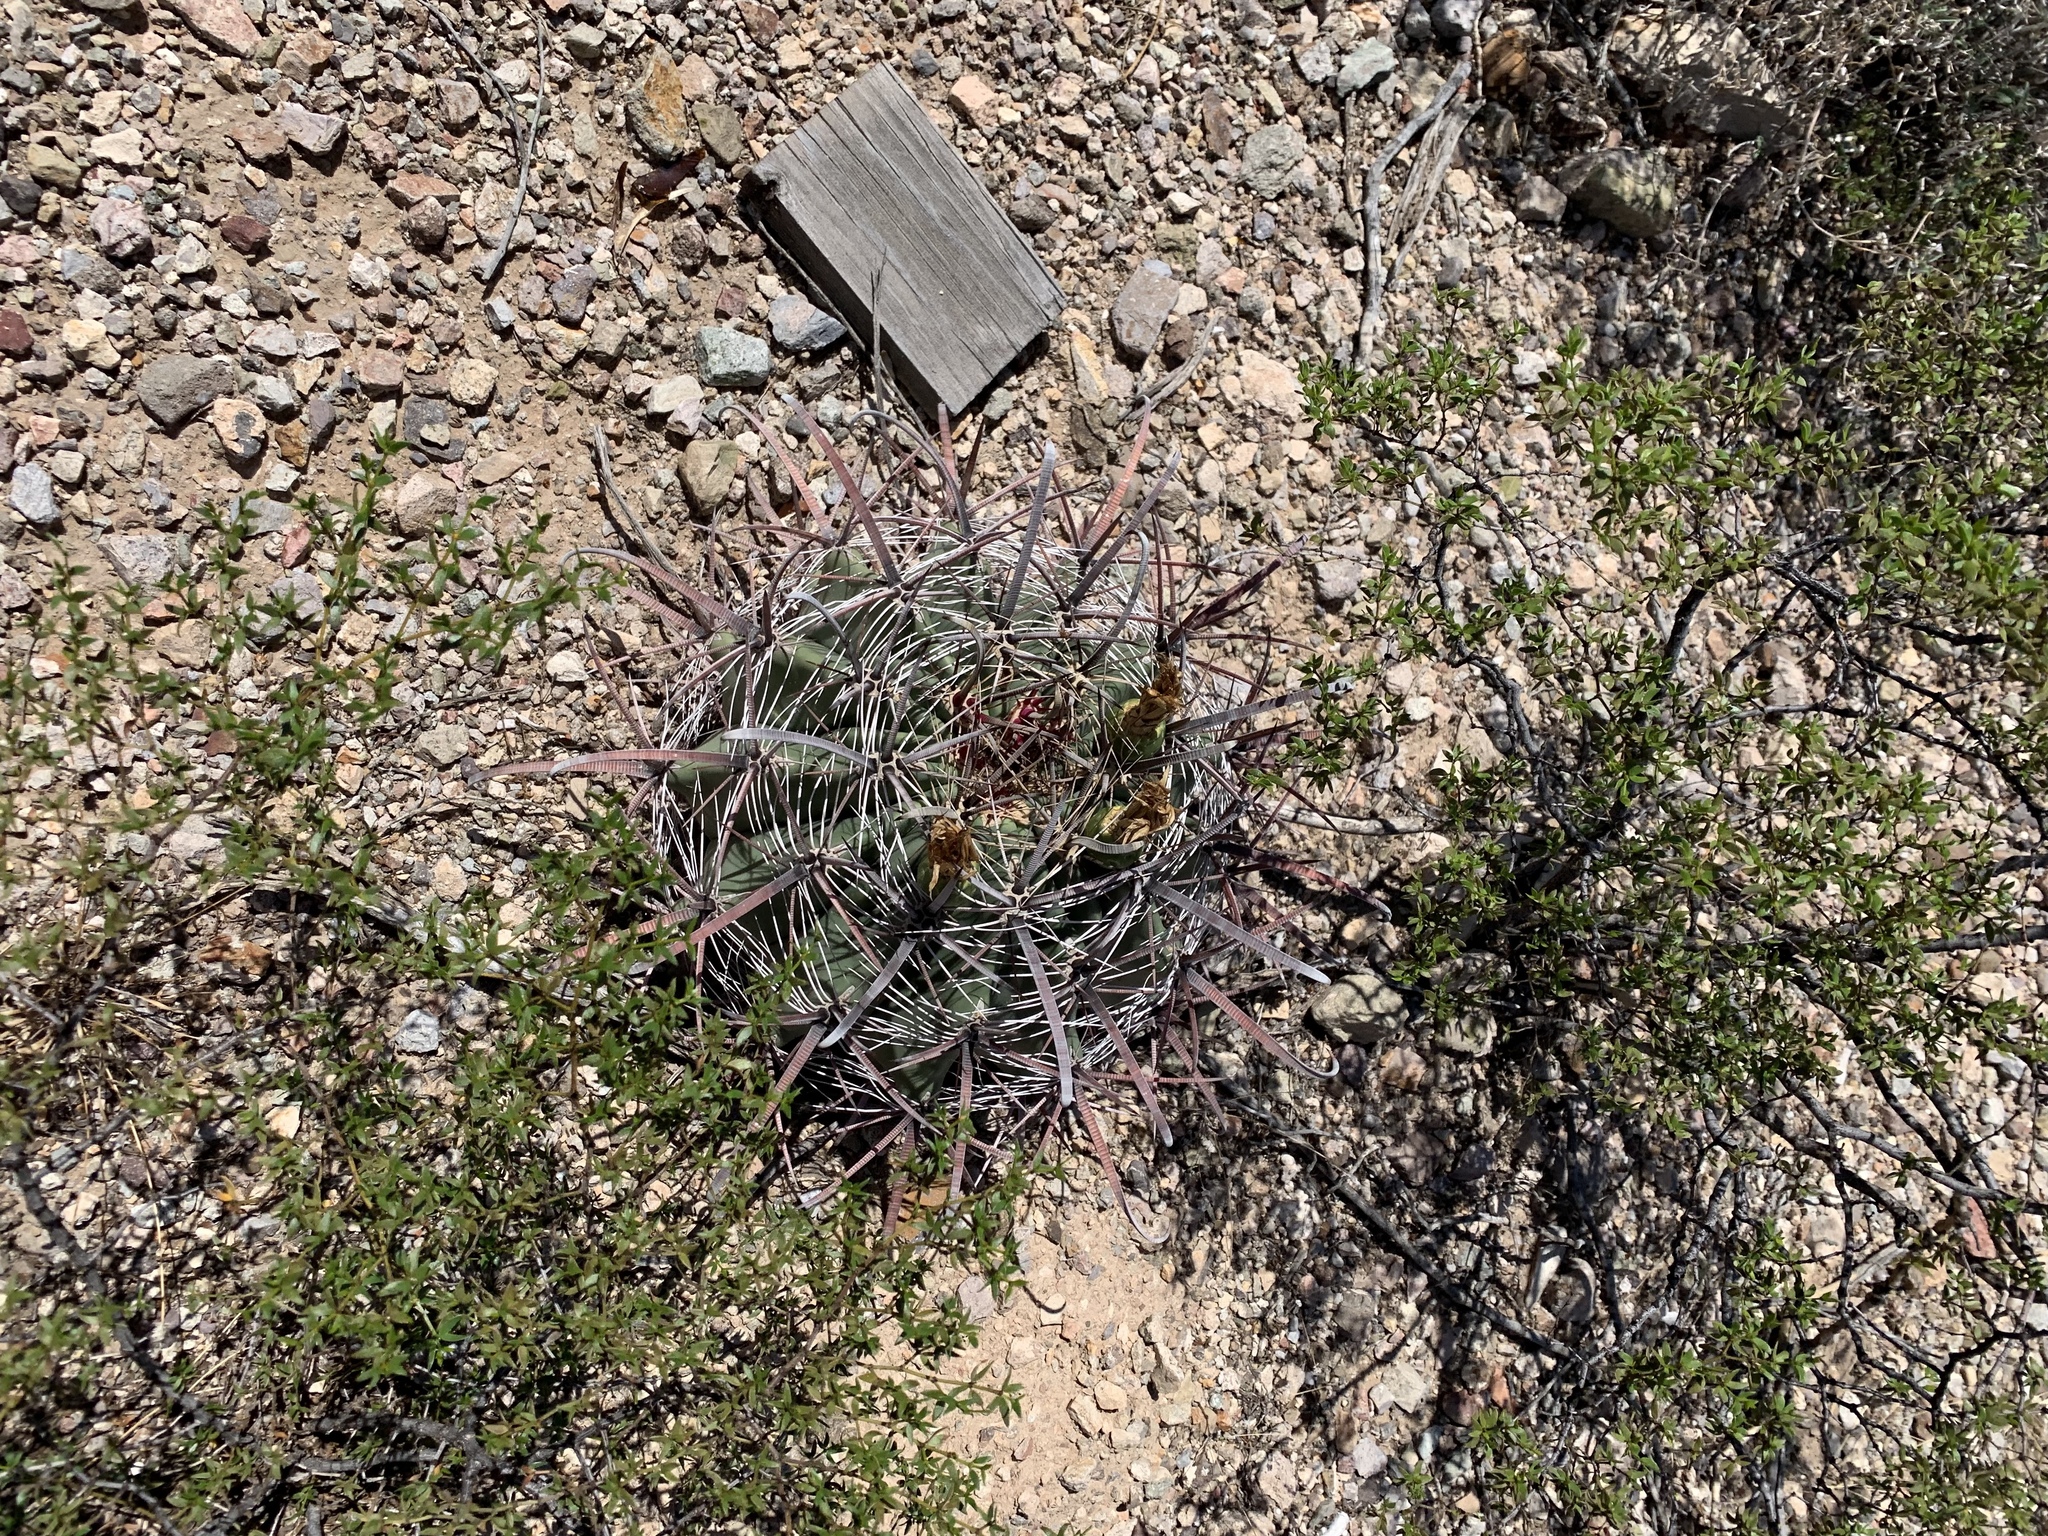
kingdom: Plantae
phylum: Tracheophyta
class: Magnoliopsida
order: Caryophyllales
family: Cactaceae
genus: Ferocactus
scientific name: Ferocactus wislizeni
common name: Candy barrel cactus
